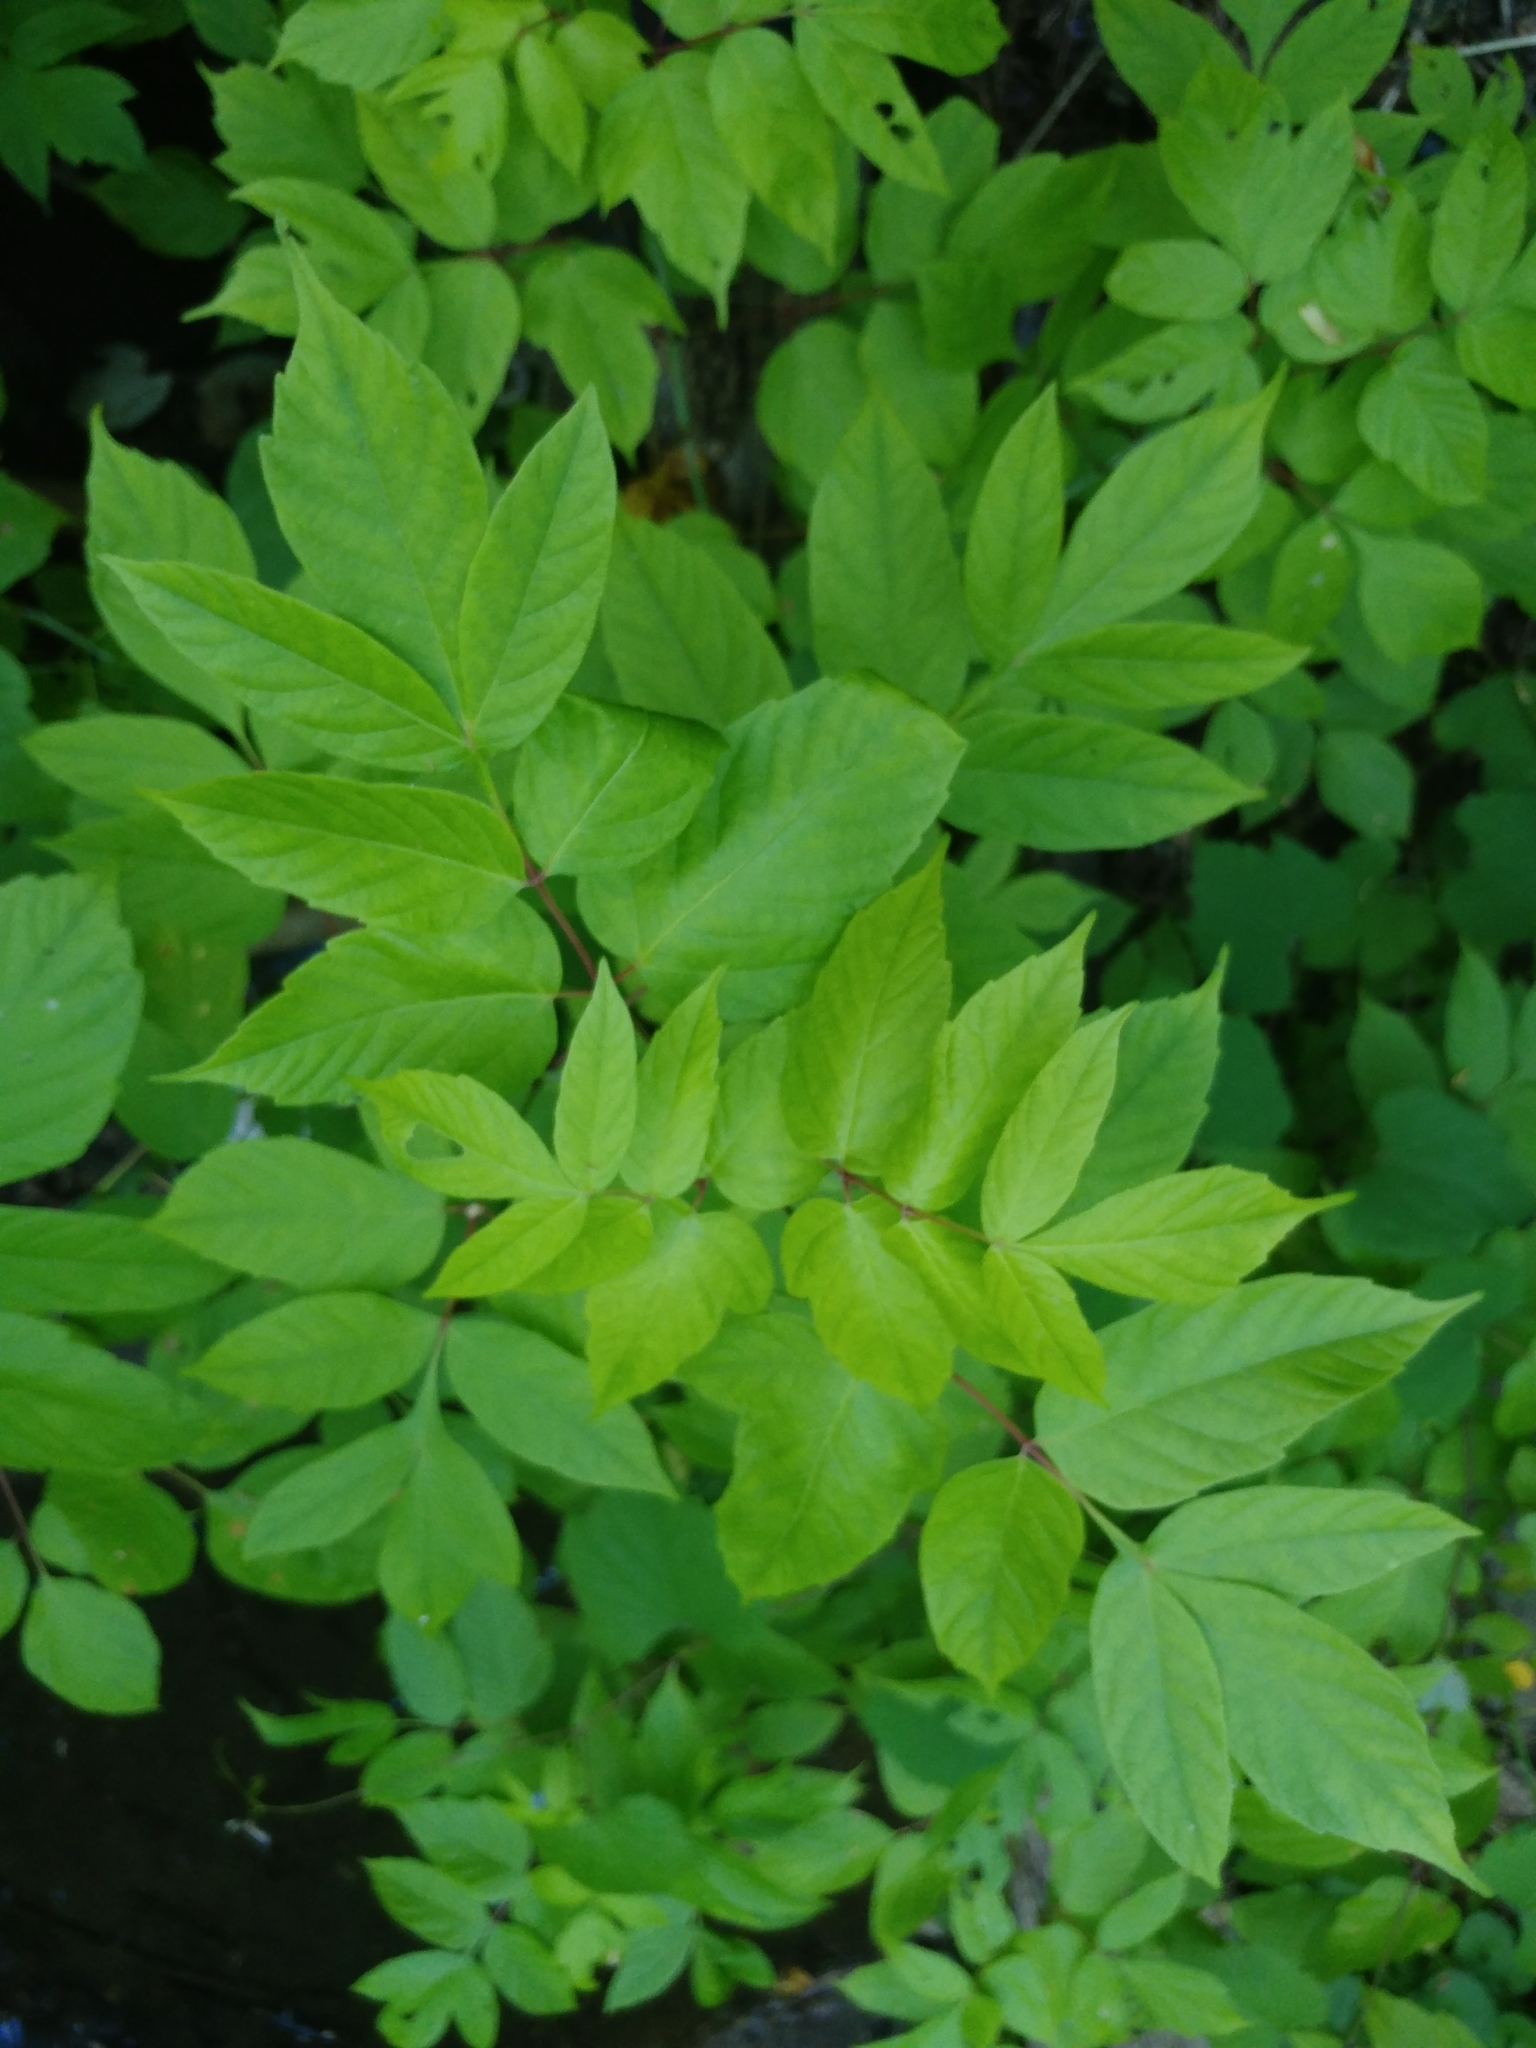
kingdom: Plantae
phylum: Tracheophyta
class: Magnoliopsida
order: Sapindales
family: Sapindaceae
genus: Acer
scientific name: Acer negundo
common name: Ashleaf maple
